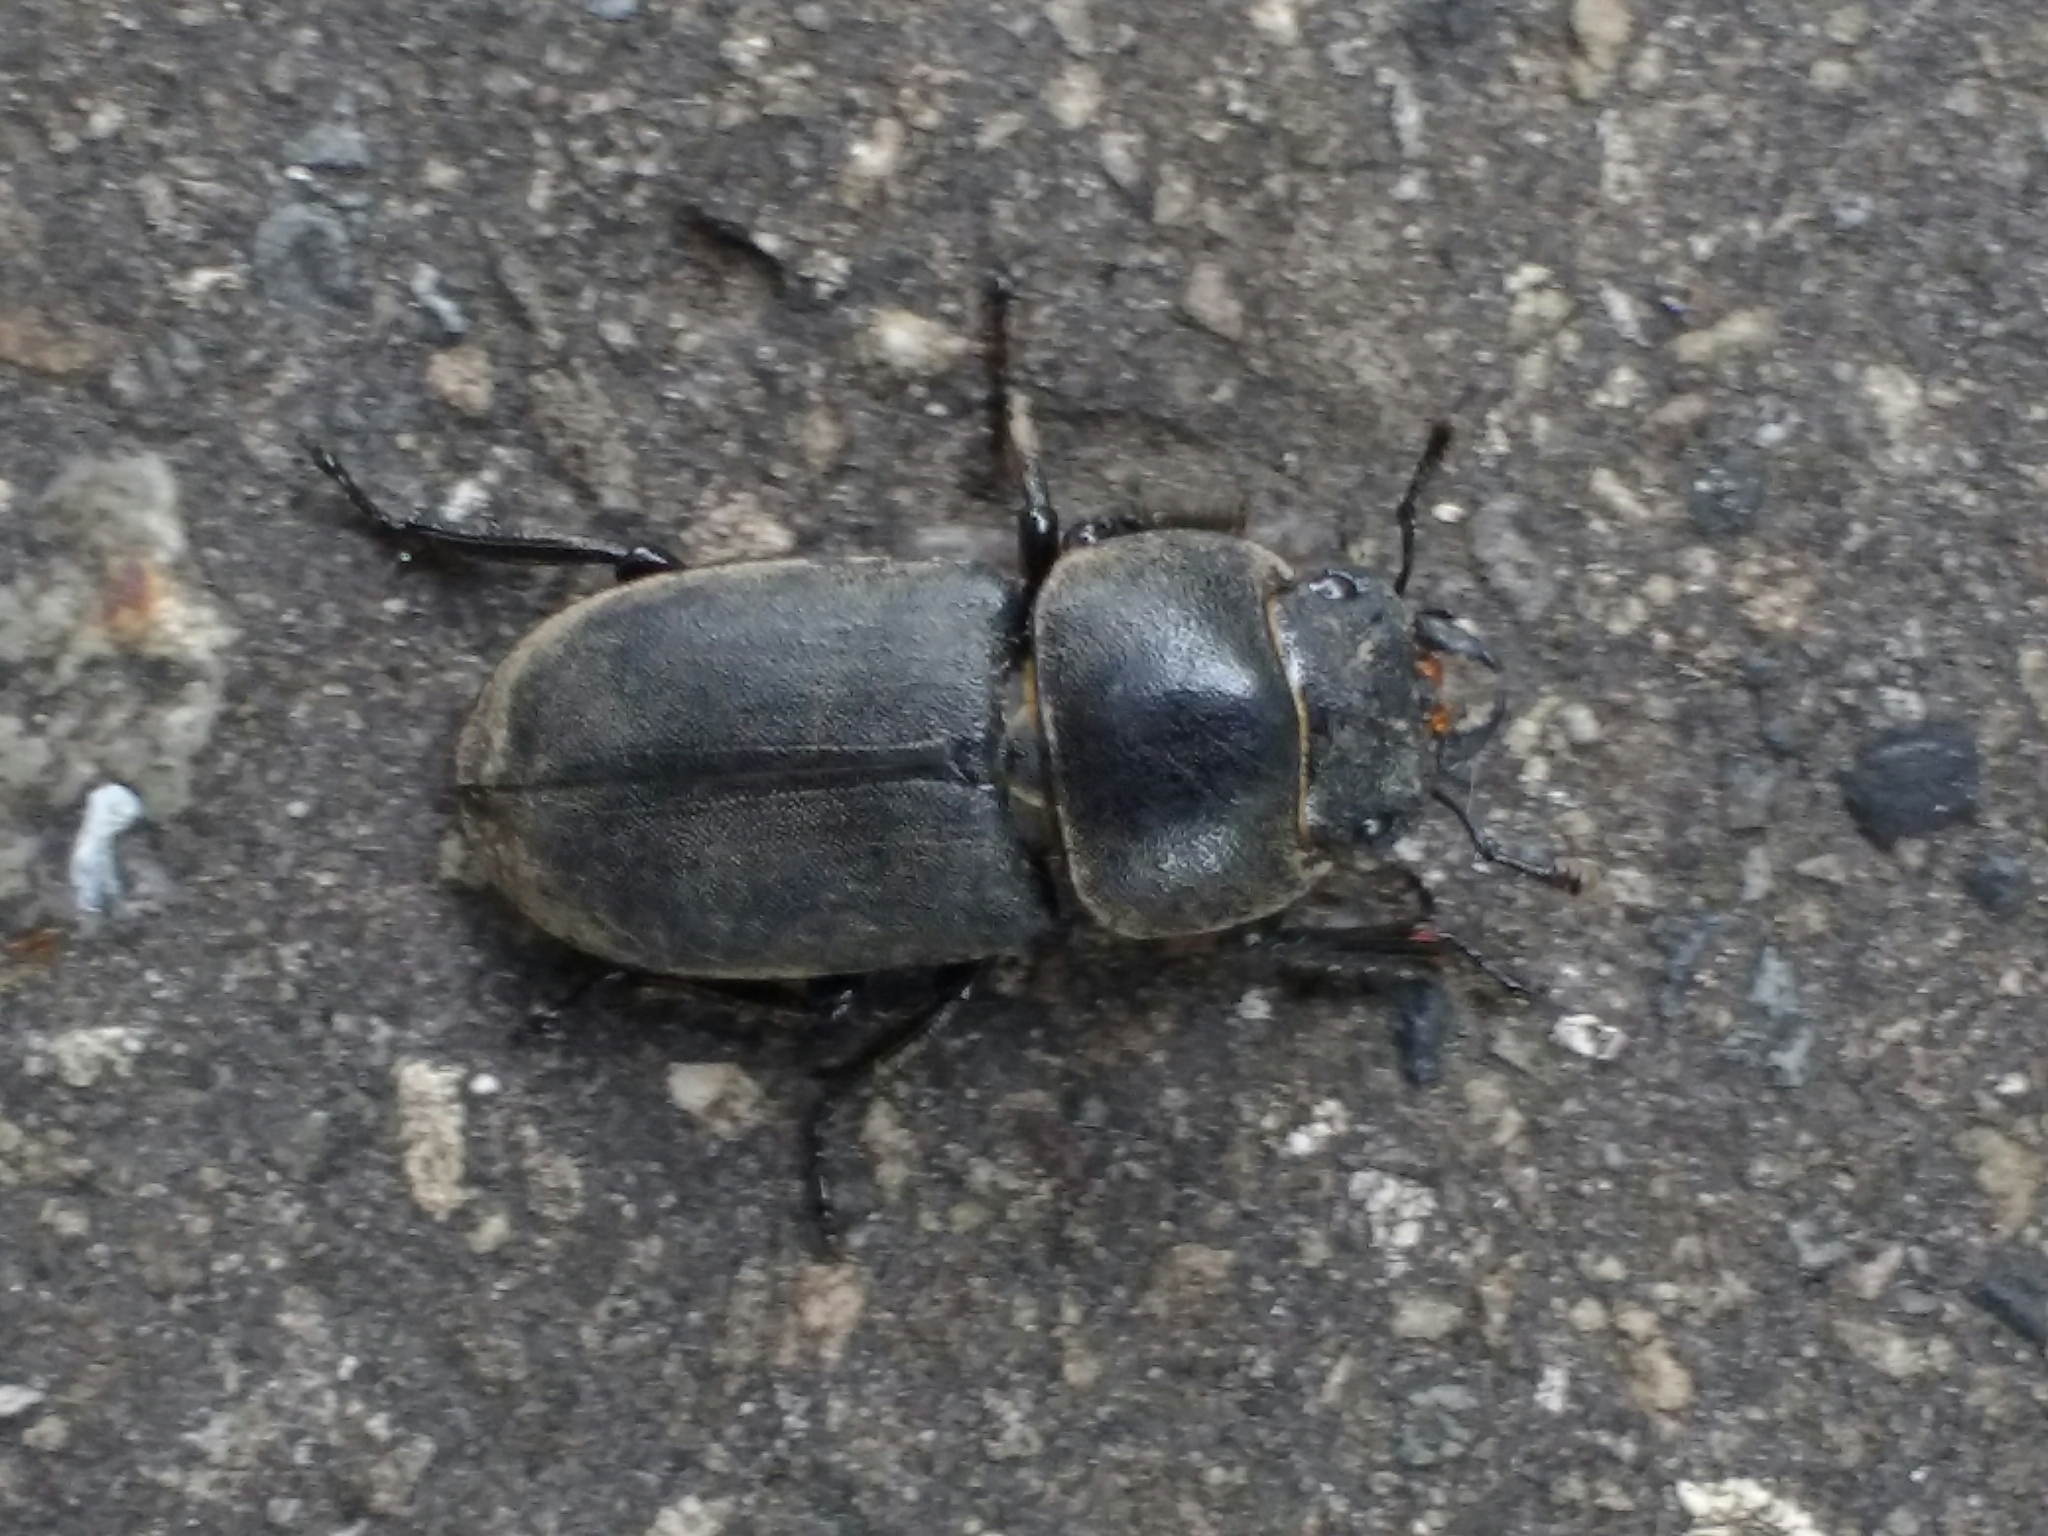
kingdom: Animalia
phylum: Arthropoda
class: Insecta
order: Coleoptera
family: Lucanidae
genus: Dorcus
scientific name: Dorcus parallelipipedus
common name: Lesser stag beetle
